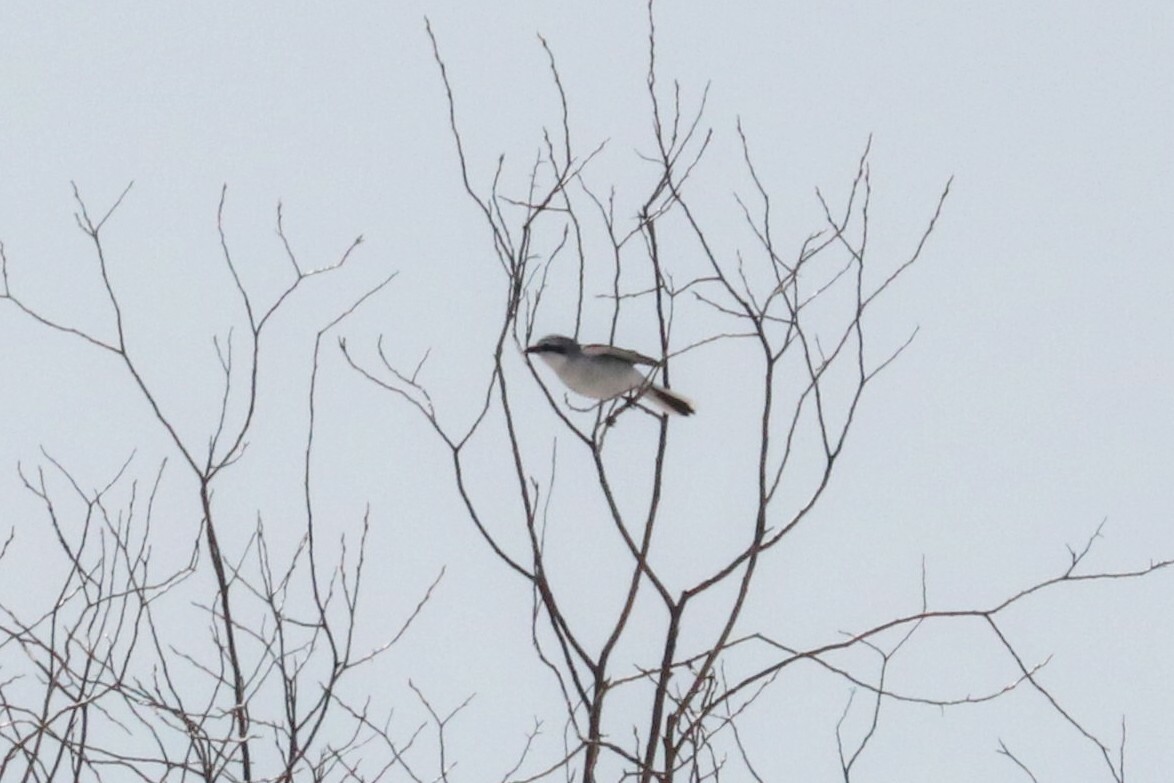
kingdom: Animalia
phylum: Chordata
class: Aves
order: Passeriformes
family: Laniidae
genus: Lanius
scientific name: Lanius excubitor
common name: Great grey shrike
